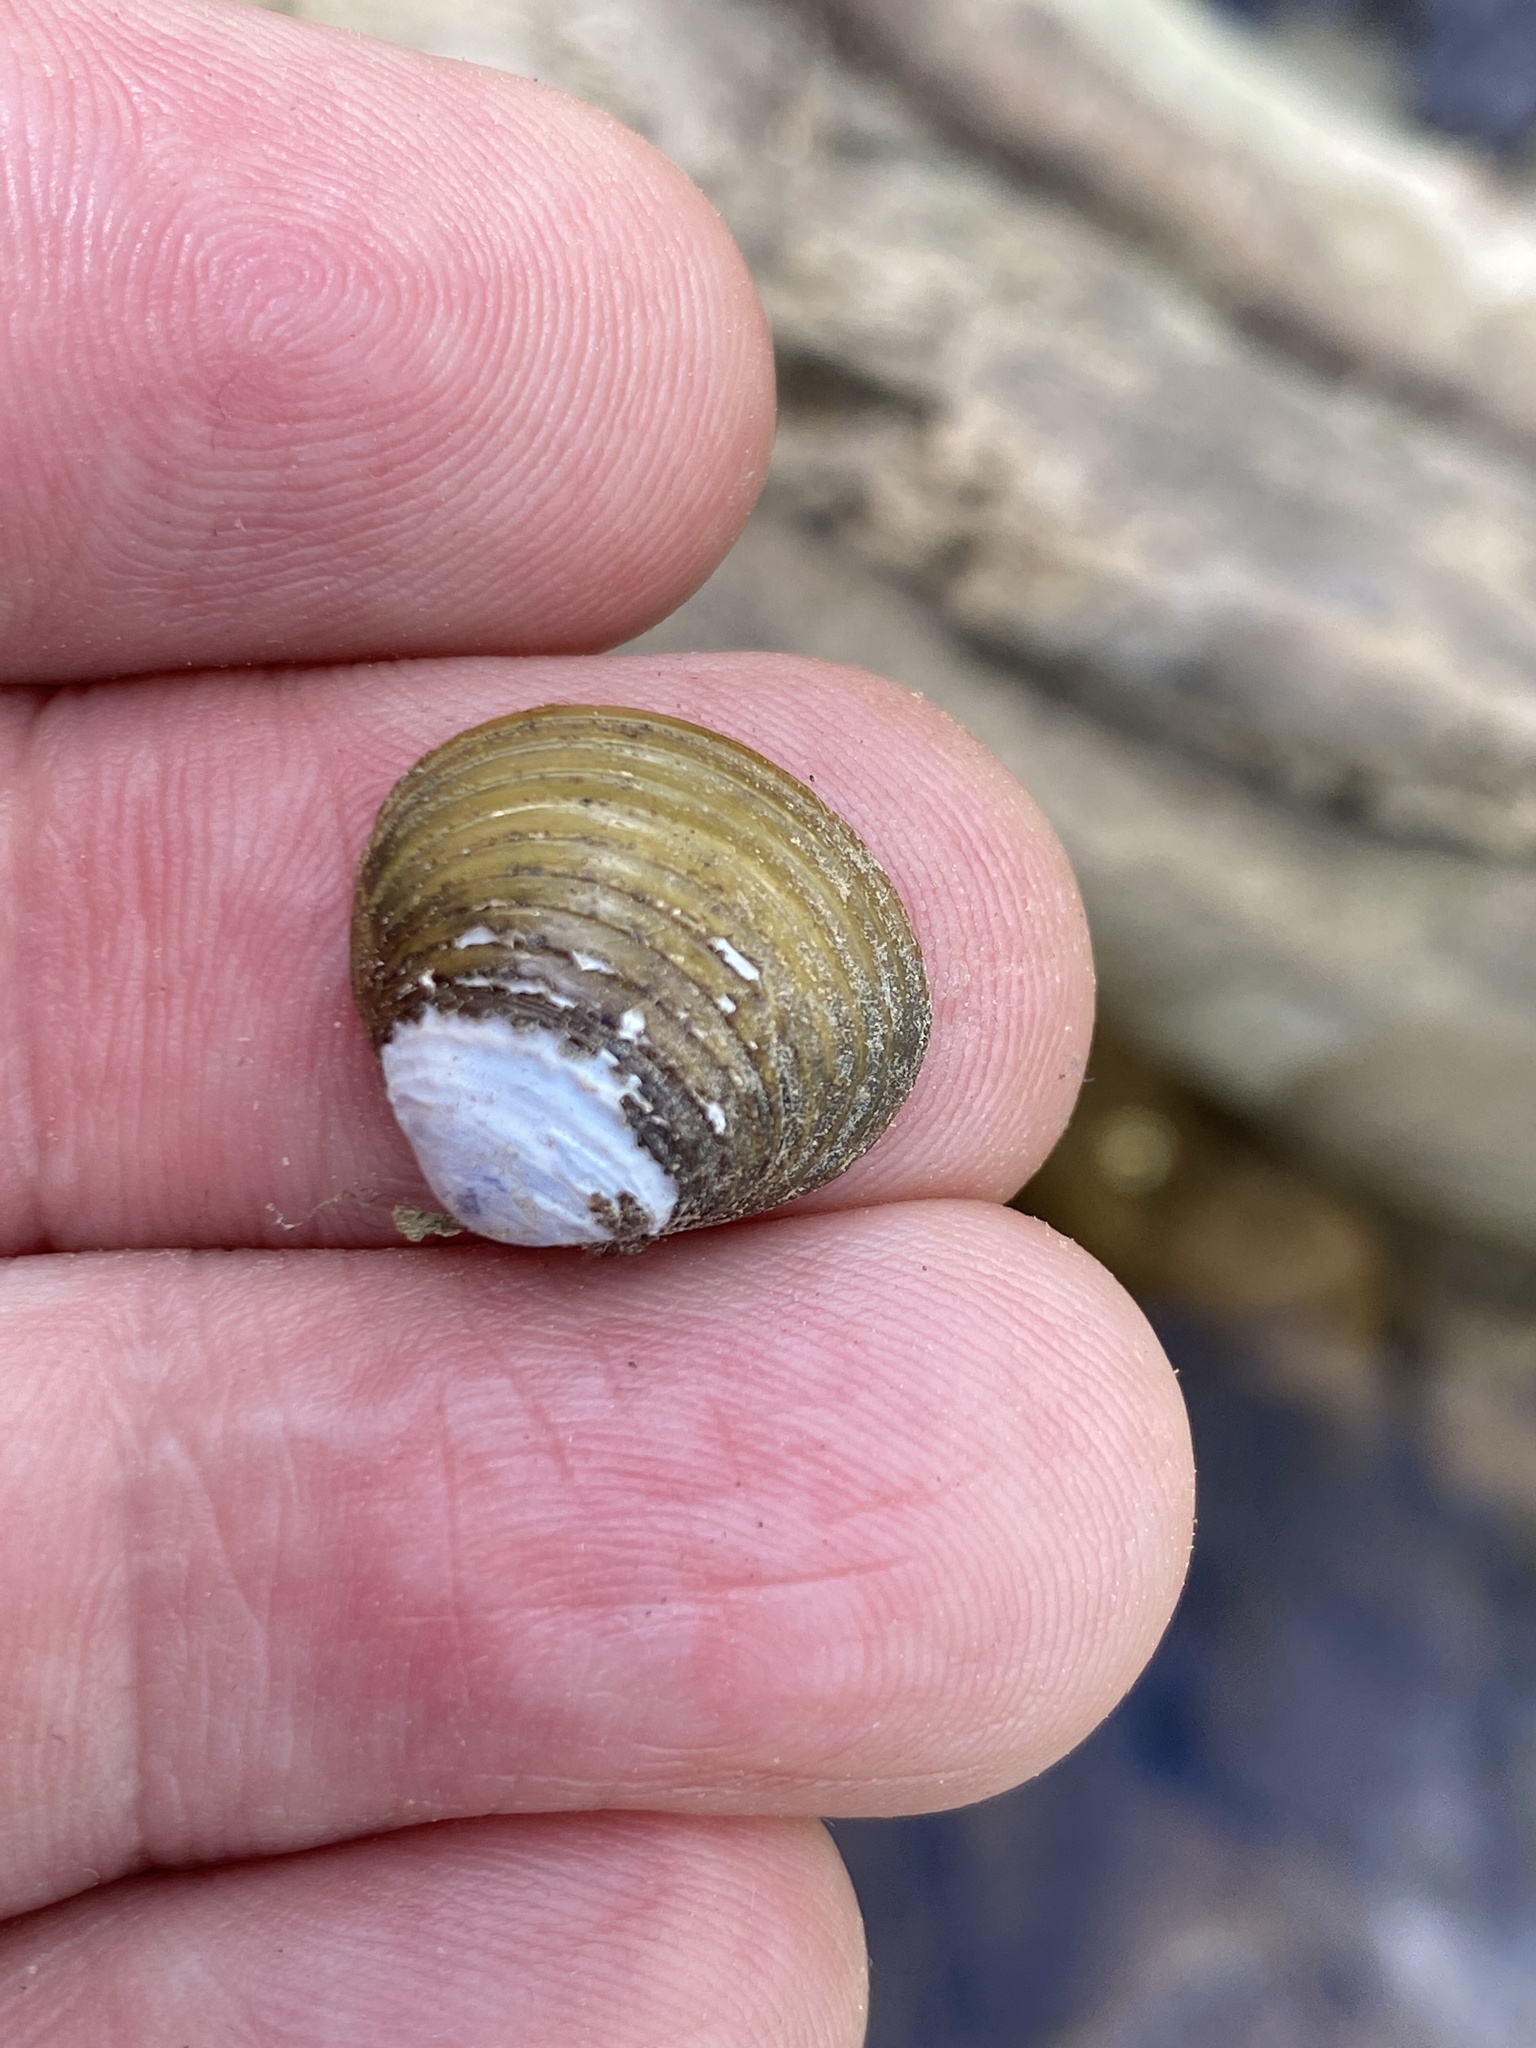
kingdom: Animalia
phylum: Mollusca
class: Bivalvia
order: Venerida
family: Cyrenidae
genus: Corbicula
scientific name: Corbicula fluminea
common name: Asian clam
